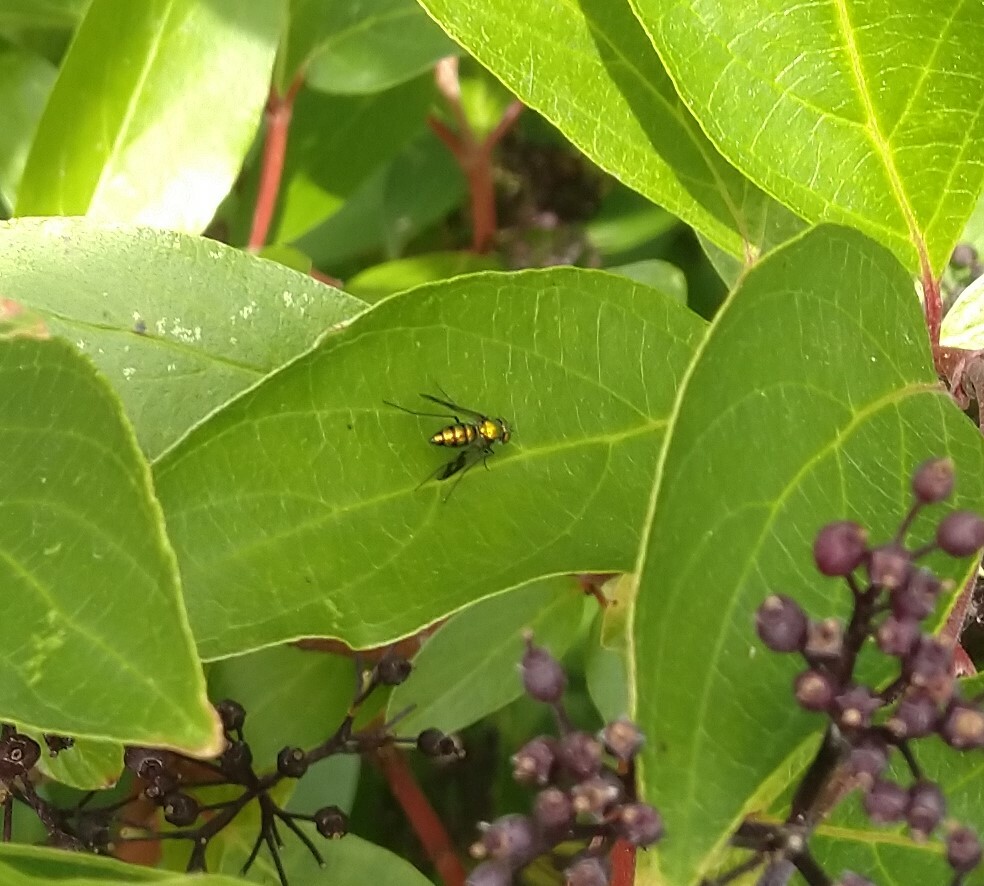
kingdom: Animalia
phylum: Arthropoda
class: Insecta
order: Diptera
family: Dolichopodidae
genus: Condylostylus
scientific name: Condylostylus patibulatus
